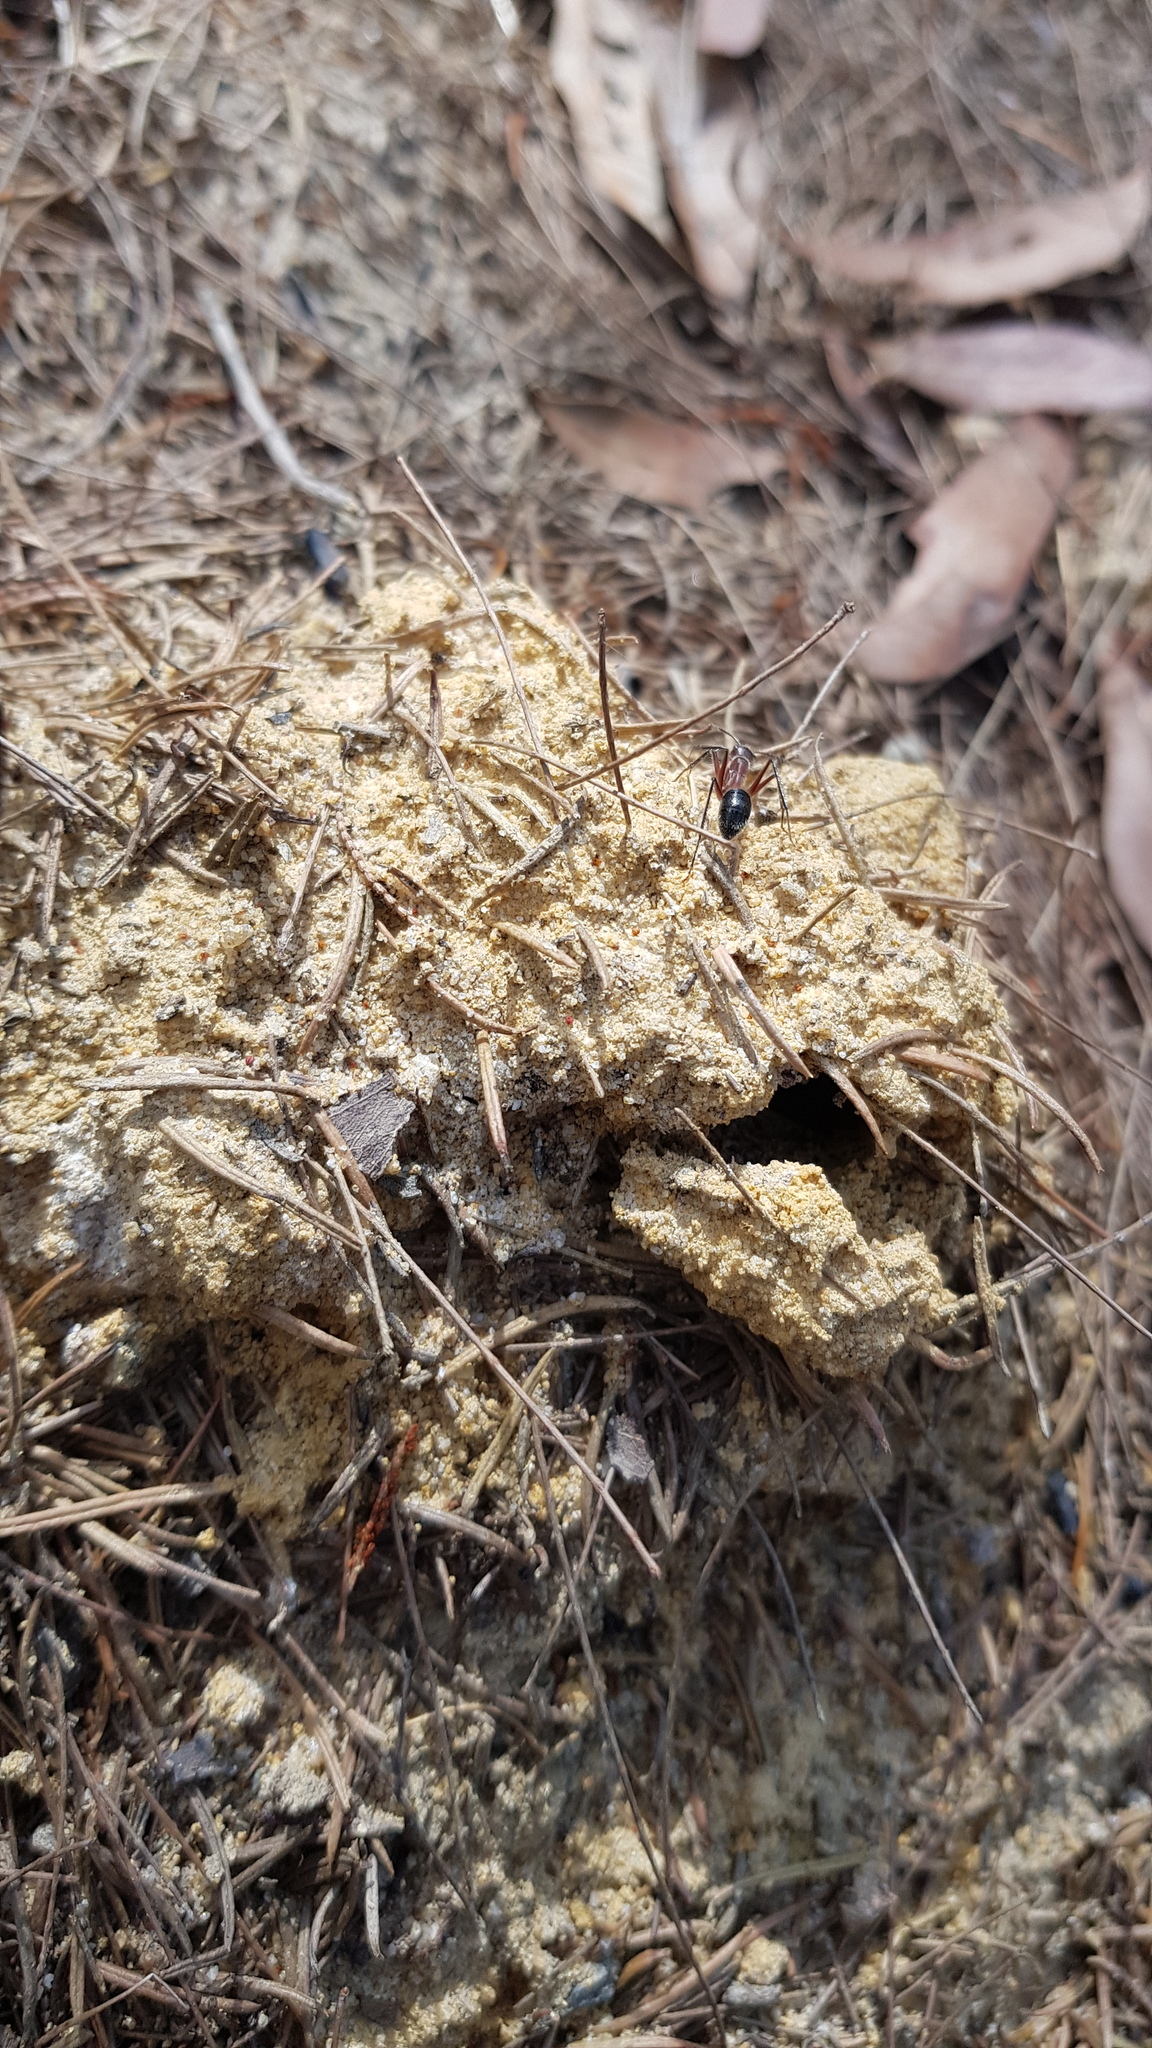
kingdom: Animalia
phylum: Arthropoda
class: Insecta
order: Hymenoptera
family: Formicidae
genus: Camponotus
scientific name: Camponotus intrepidus
